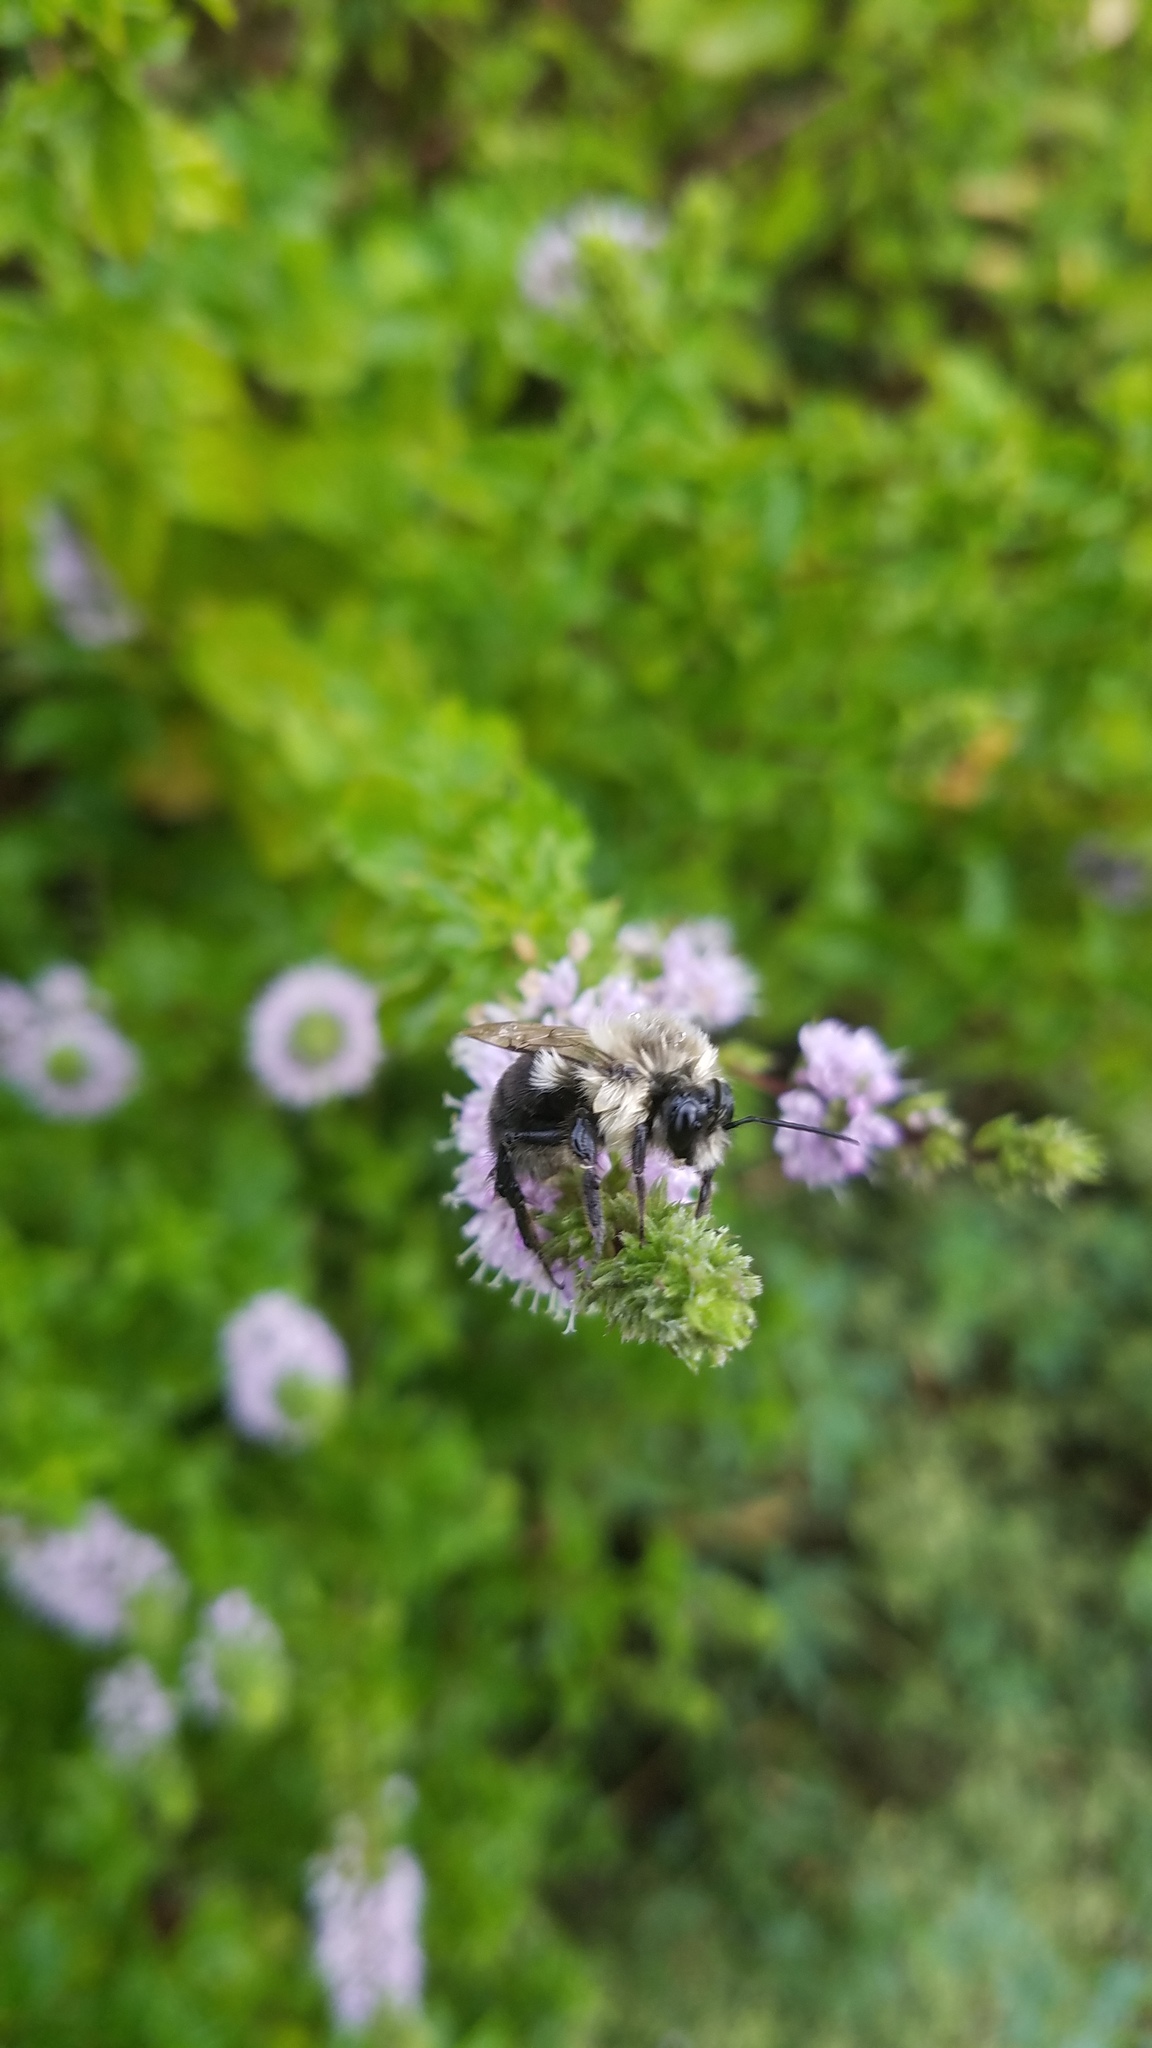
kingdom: Animalia
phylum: Arthropoda
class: Insecta
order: Hymenoptera
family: Apidae
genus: Bombus
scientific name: Bombus impatiens
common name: Common eastern bumble bee
